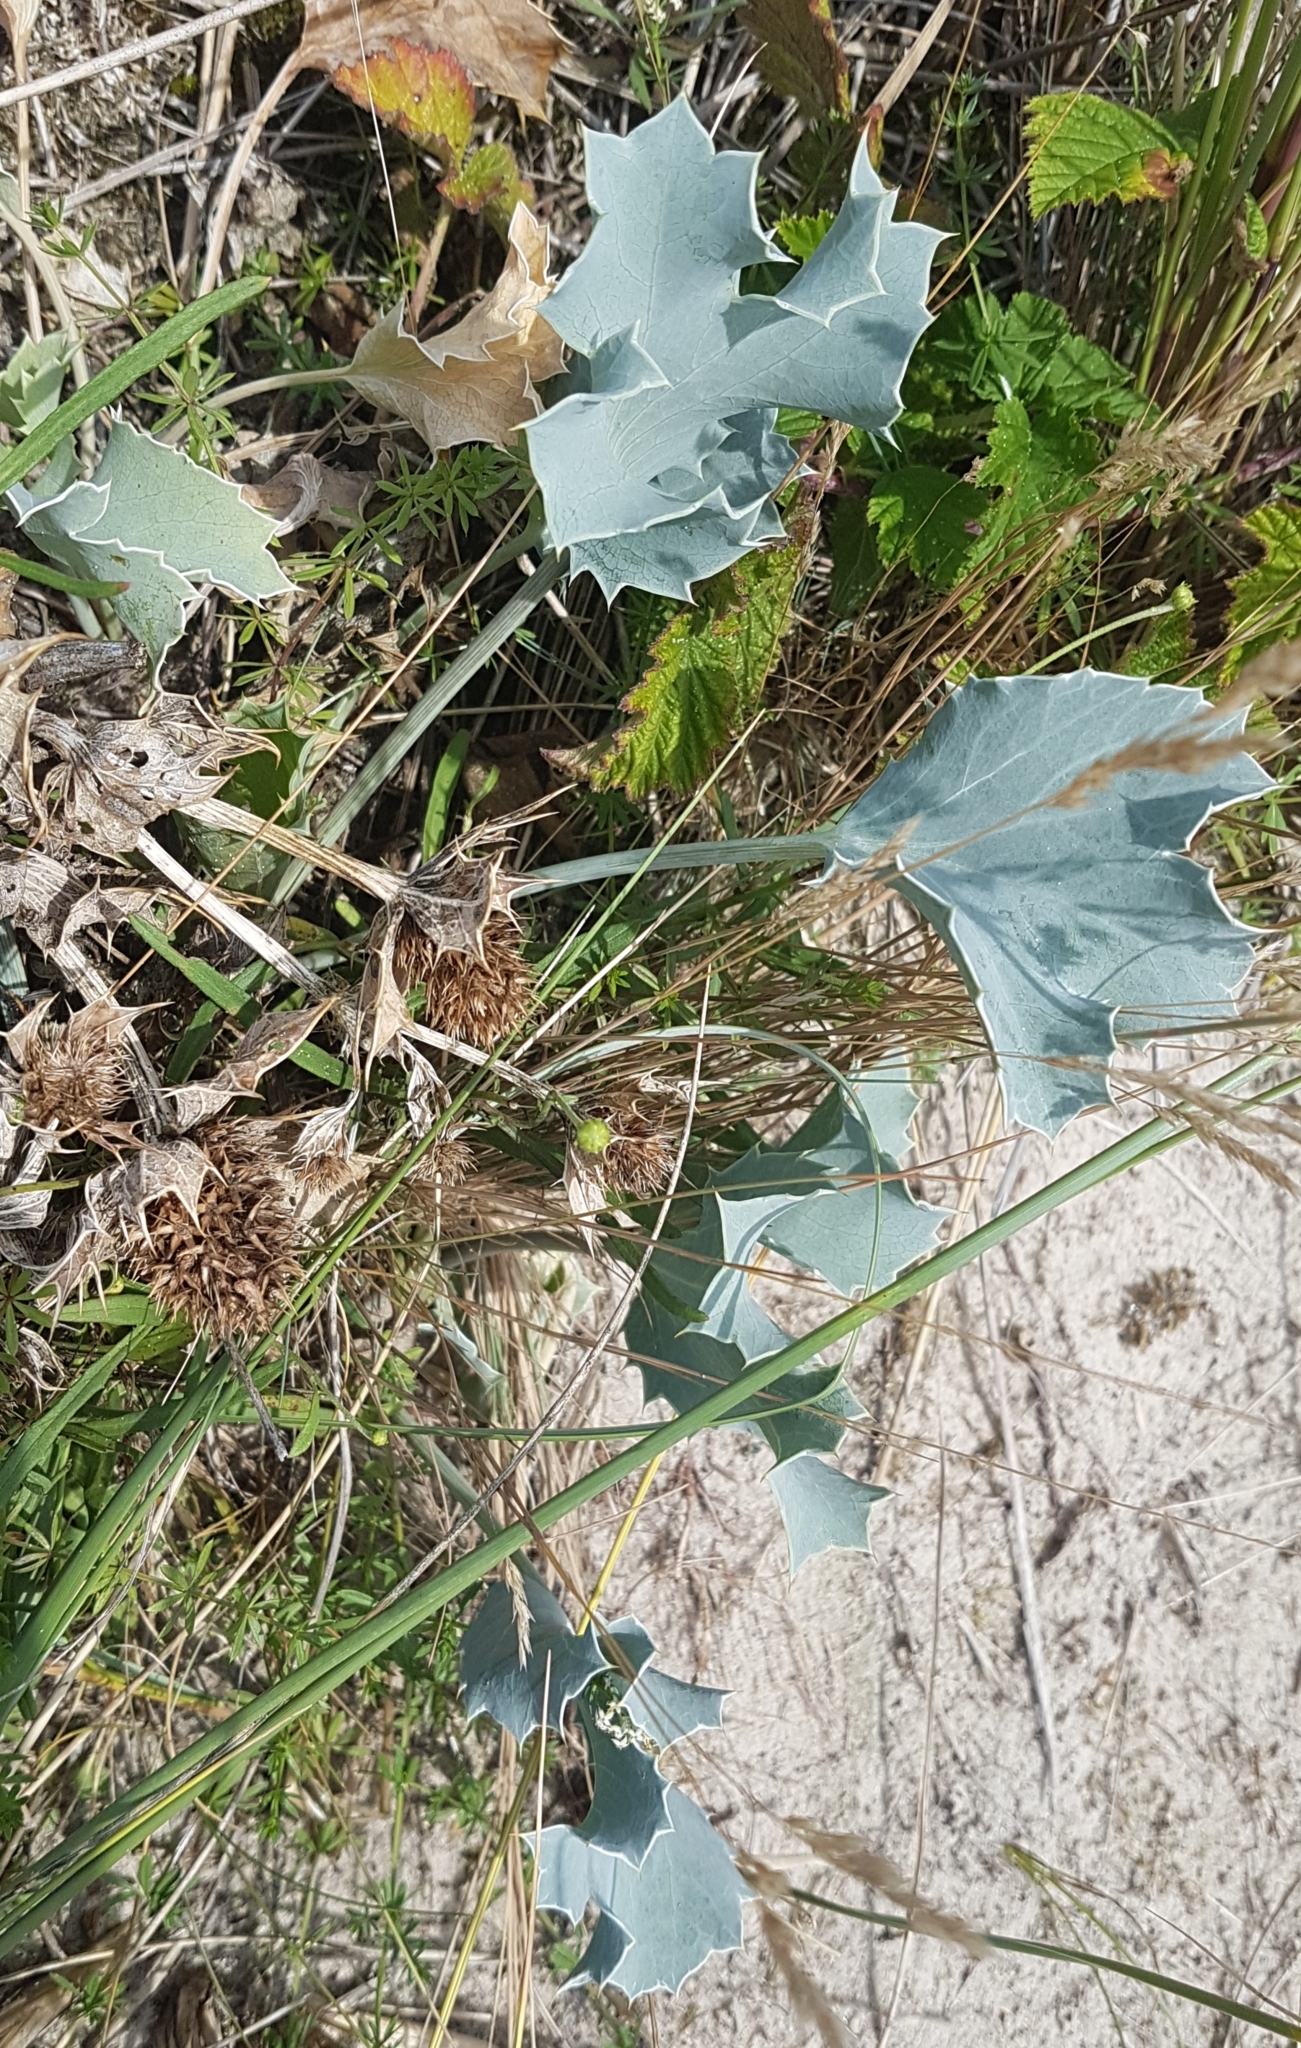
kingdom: Plantae
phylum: Tracheophyta
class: Magnoliopsida
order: Apiales
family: Apiaceae
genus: Eryngium
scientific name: Eryngium maritimum
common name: Sea-holly
